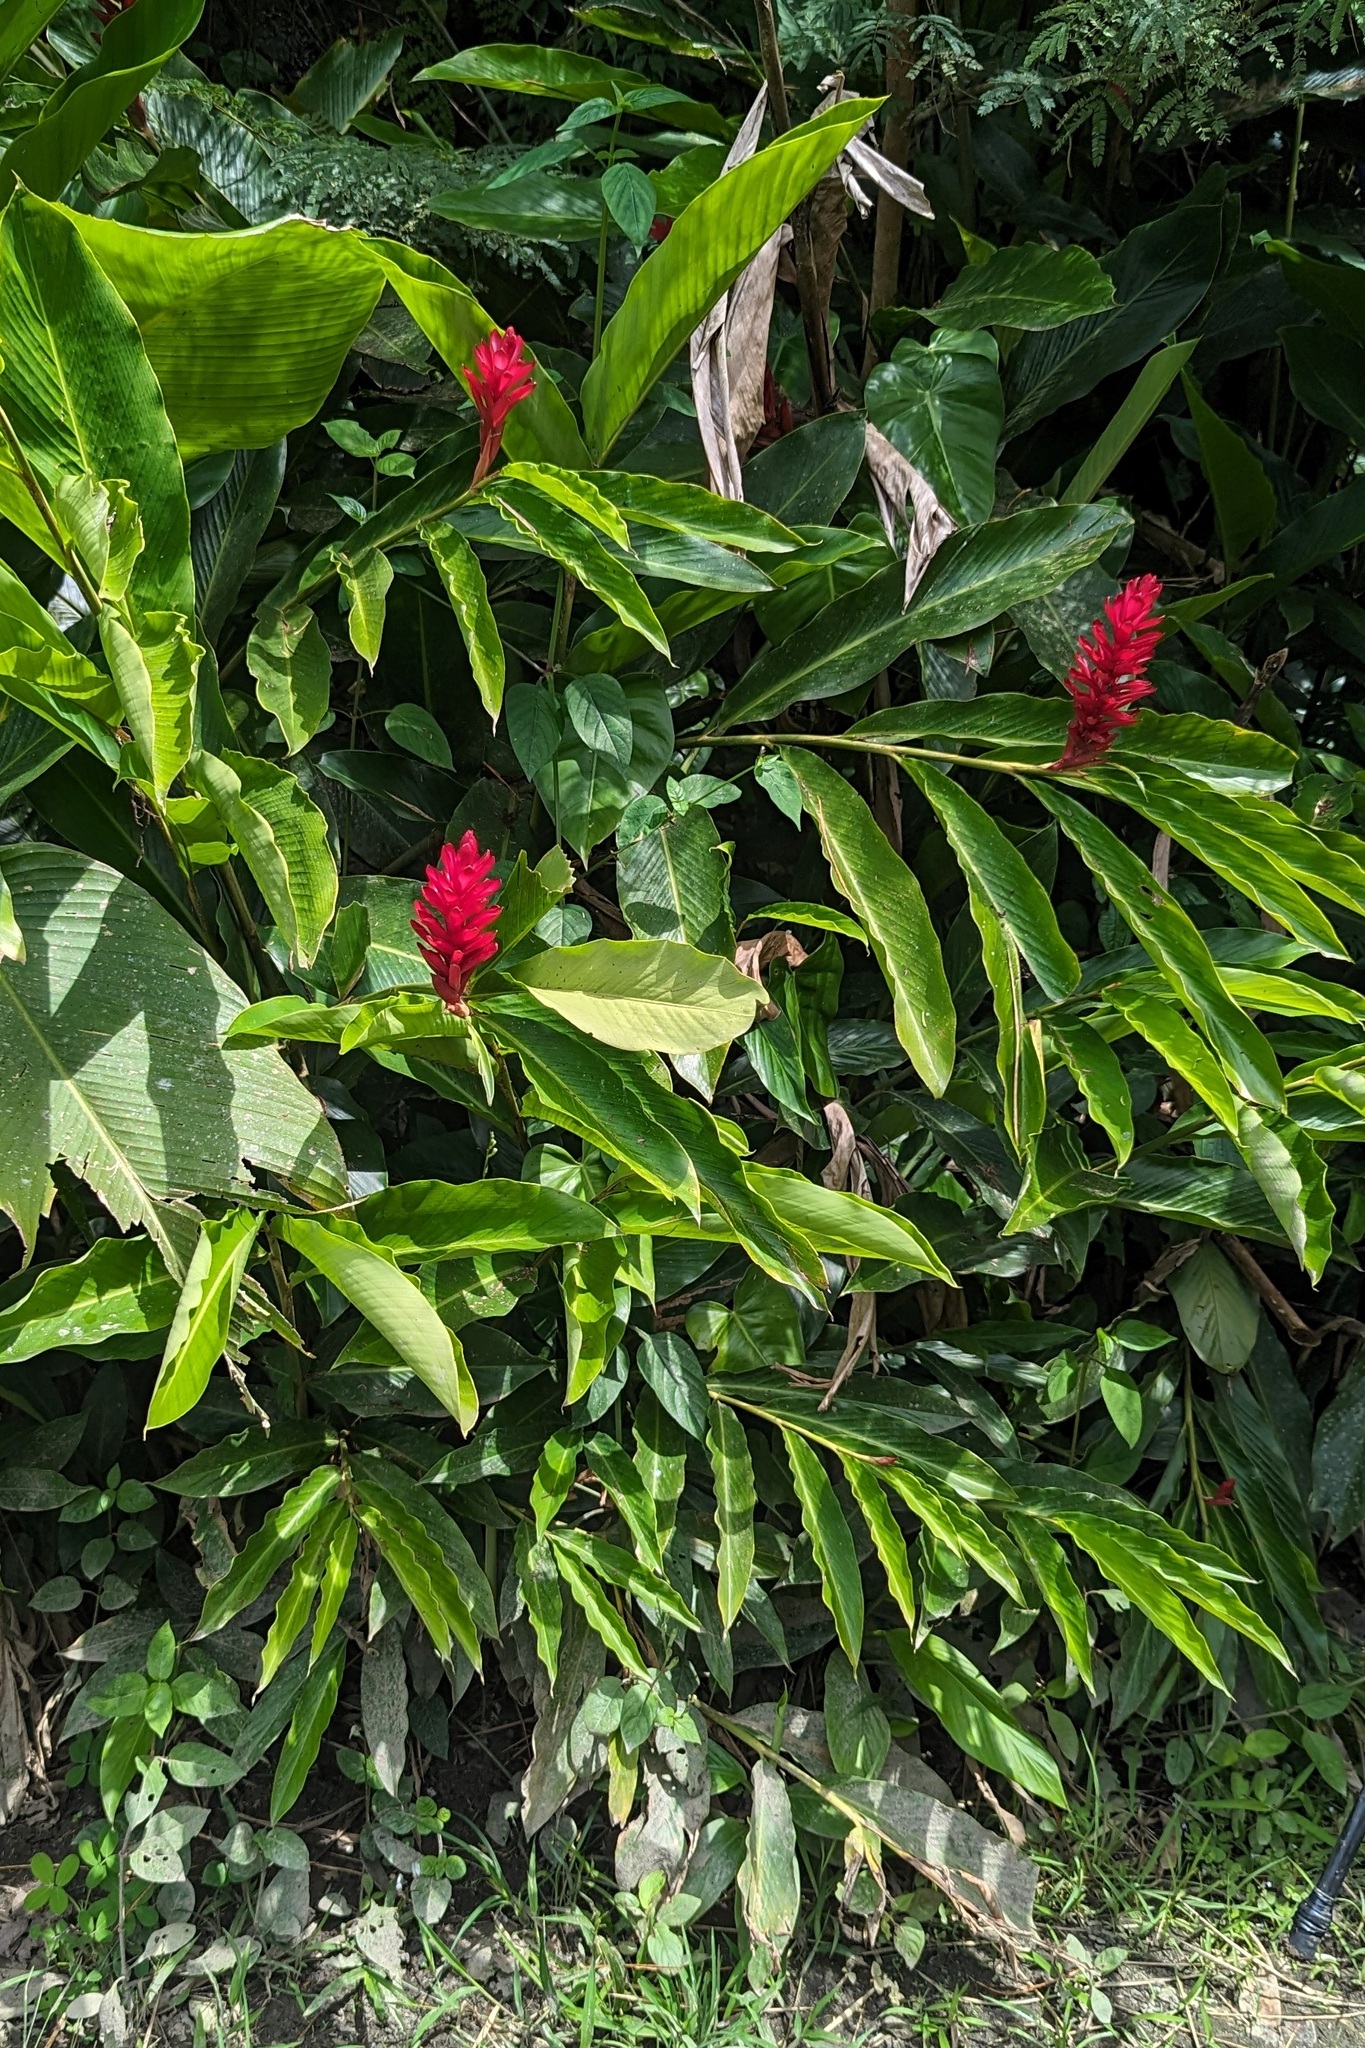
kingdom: Plantae
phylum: Tracheophyta
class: Liliopsida
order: Zingiberales
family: Zingiberaceae
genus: Alpinia
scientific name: Alpinia purpurata
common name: Red ginger
